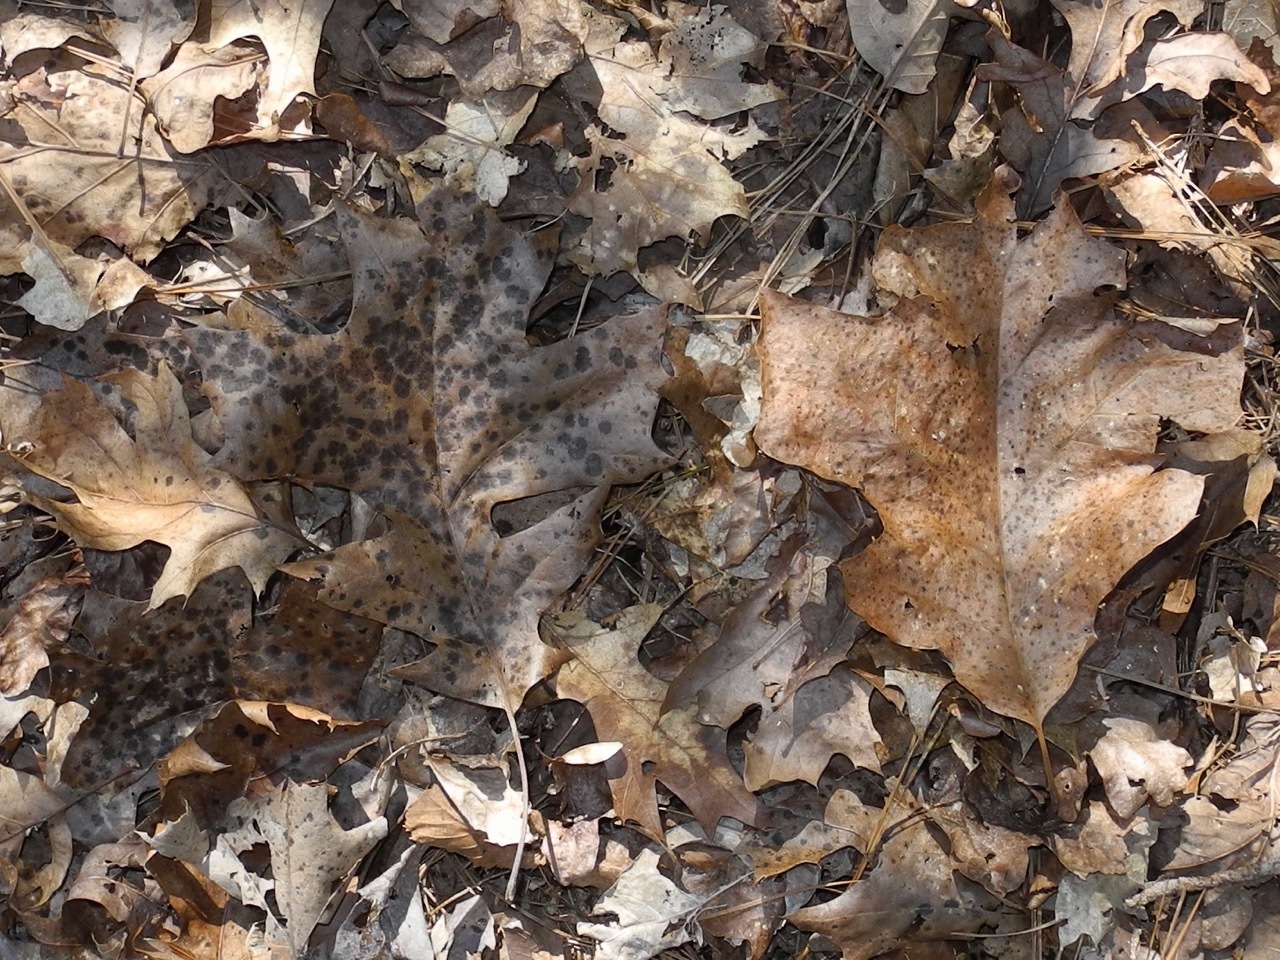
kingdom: Plantae
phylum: Tracheophyta
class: Magnoliopsida
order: Fagales
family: Fagaceae
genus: Quercus
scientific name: Quercus velutina
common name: Black oak
